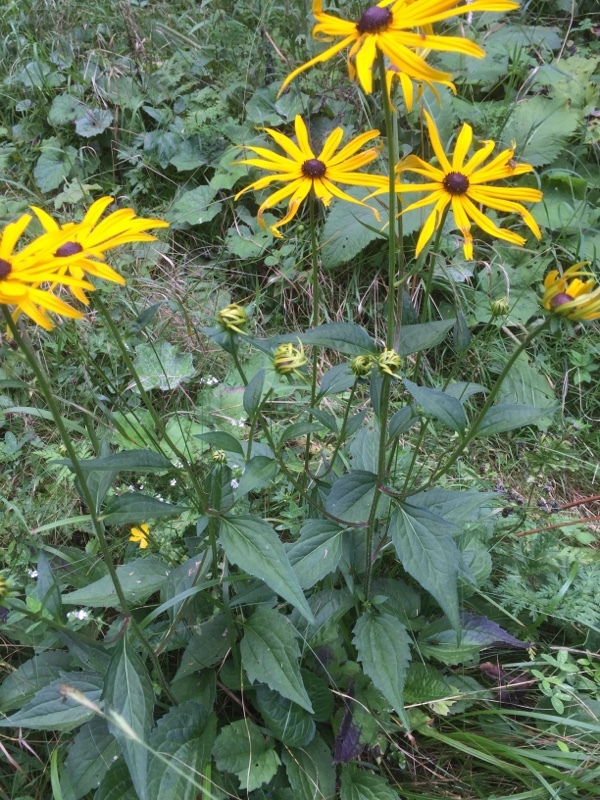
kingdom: Plantae
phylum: Tracheophyta
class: Magnoliopsida
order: Asterales
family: Asteraceae
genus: Rudbeckia
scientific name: Rudbeckia hirta
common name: Black-eyed-susan
